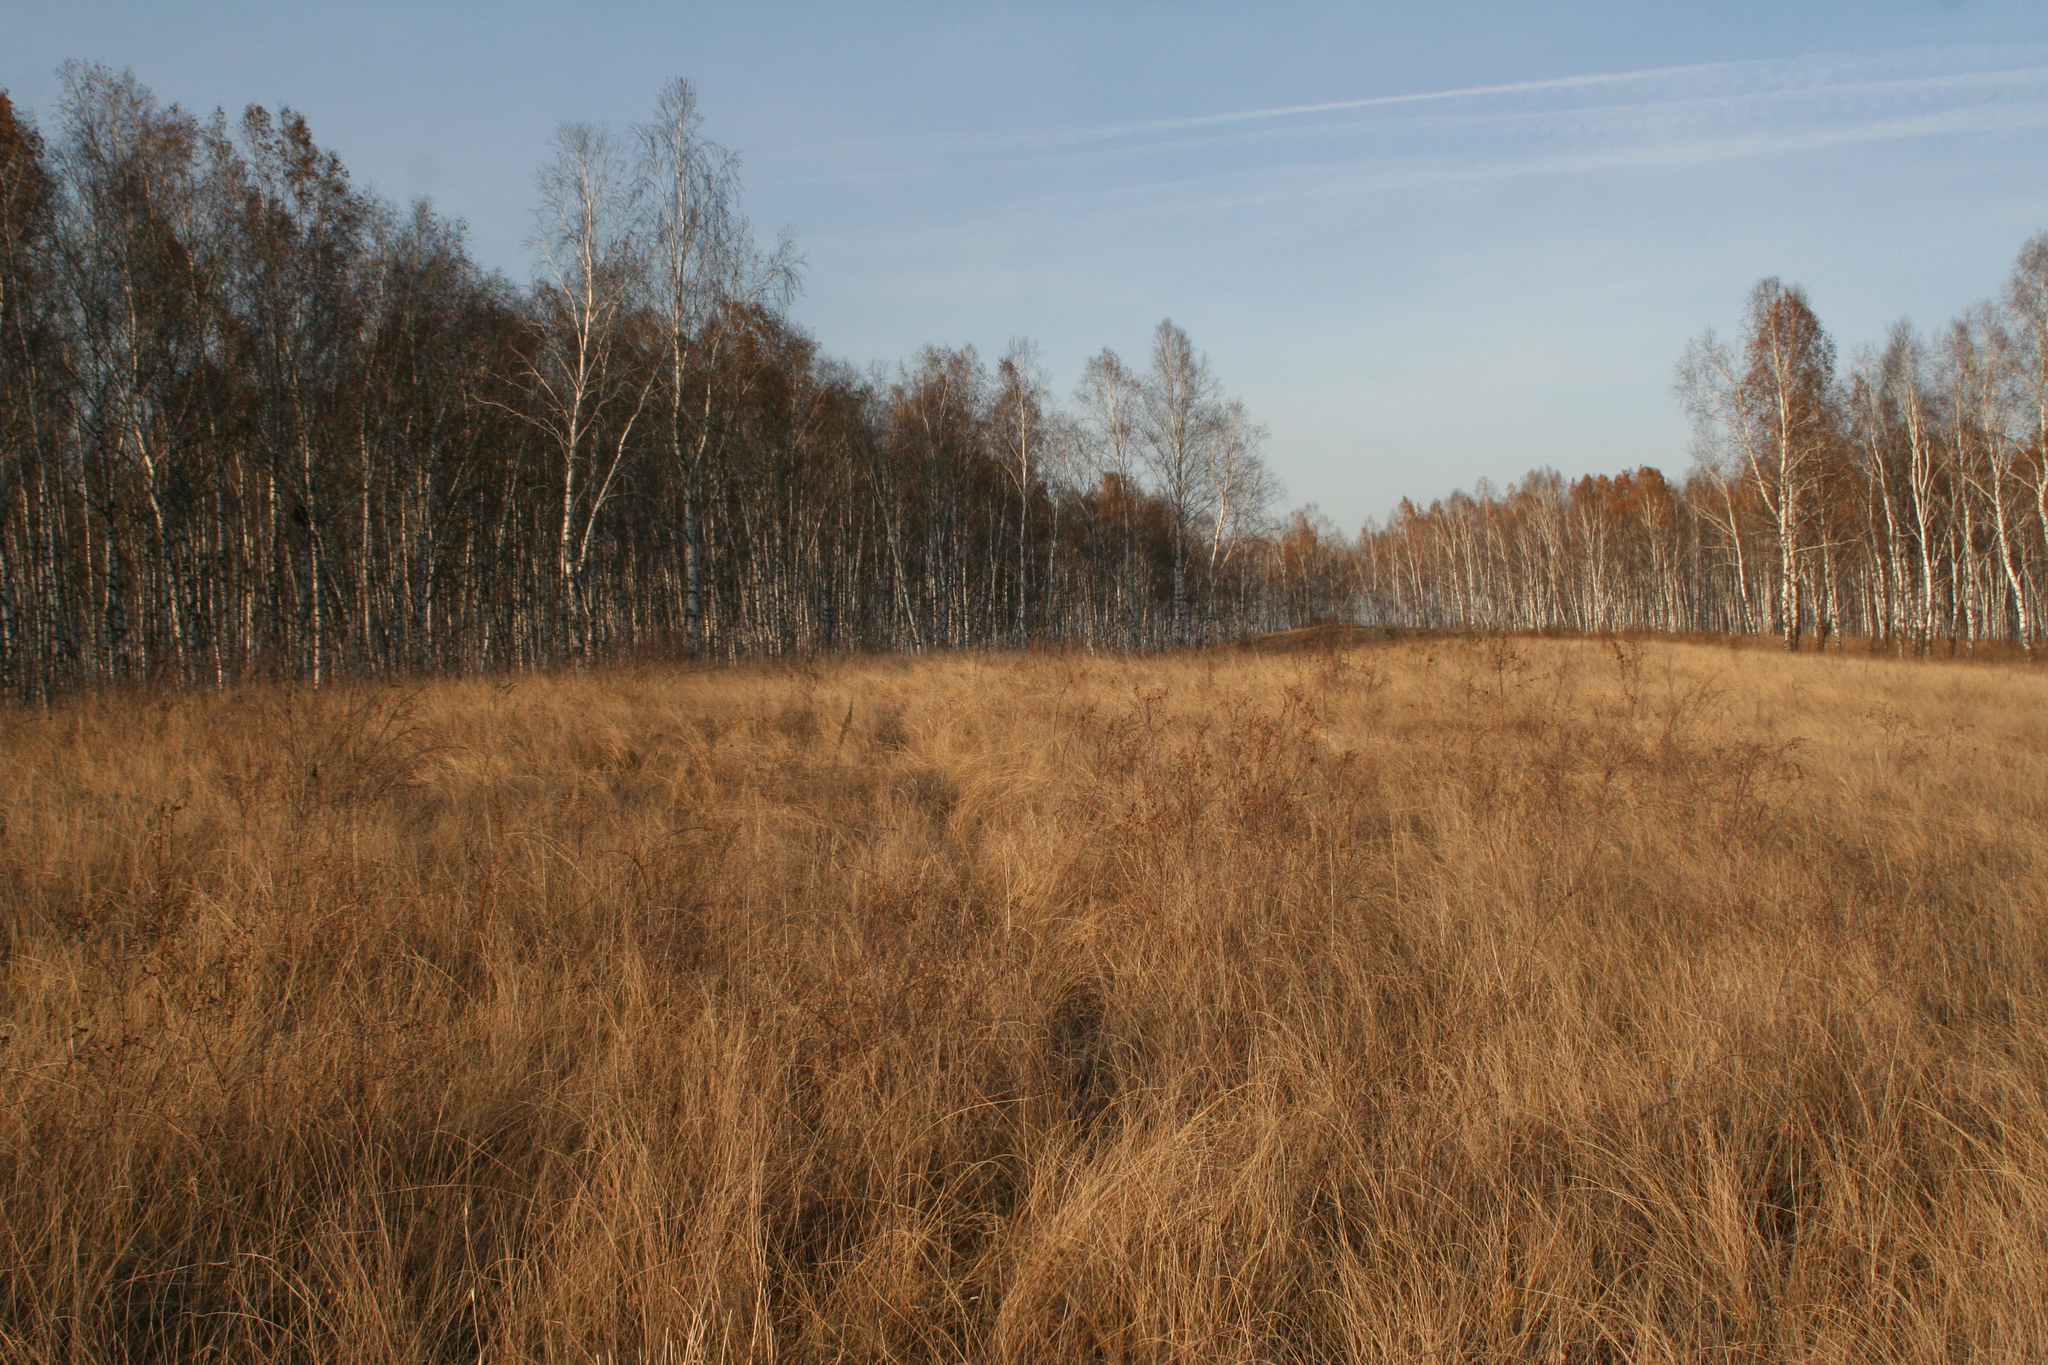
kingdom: Plantae
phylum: Tracheophyta
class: Magnoliopsida
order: Fagales
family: Betulaceae
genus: Betula
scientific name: Betula pendula
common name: Silver birch
